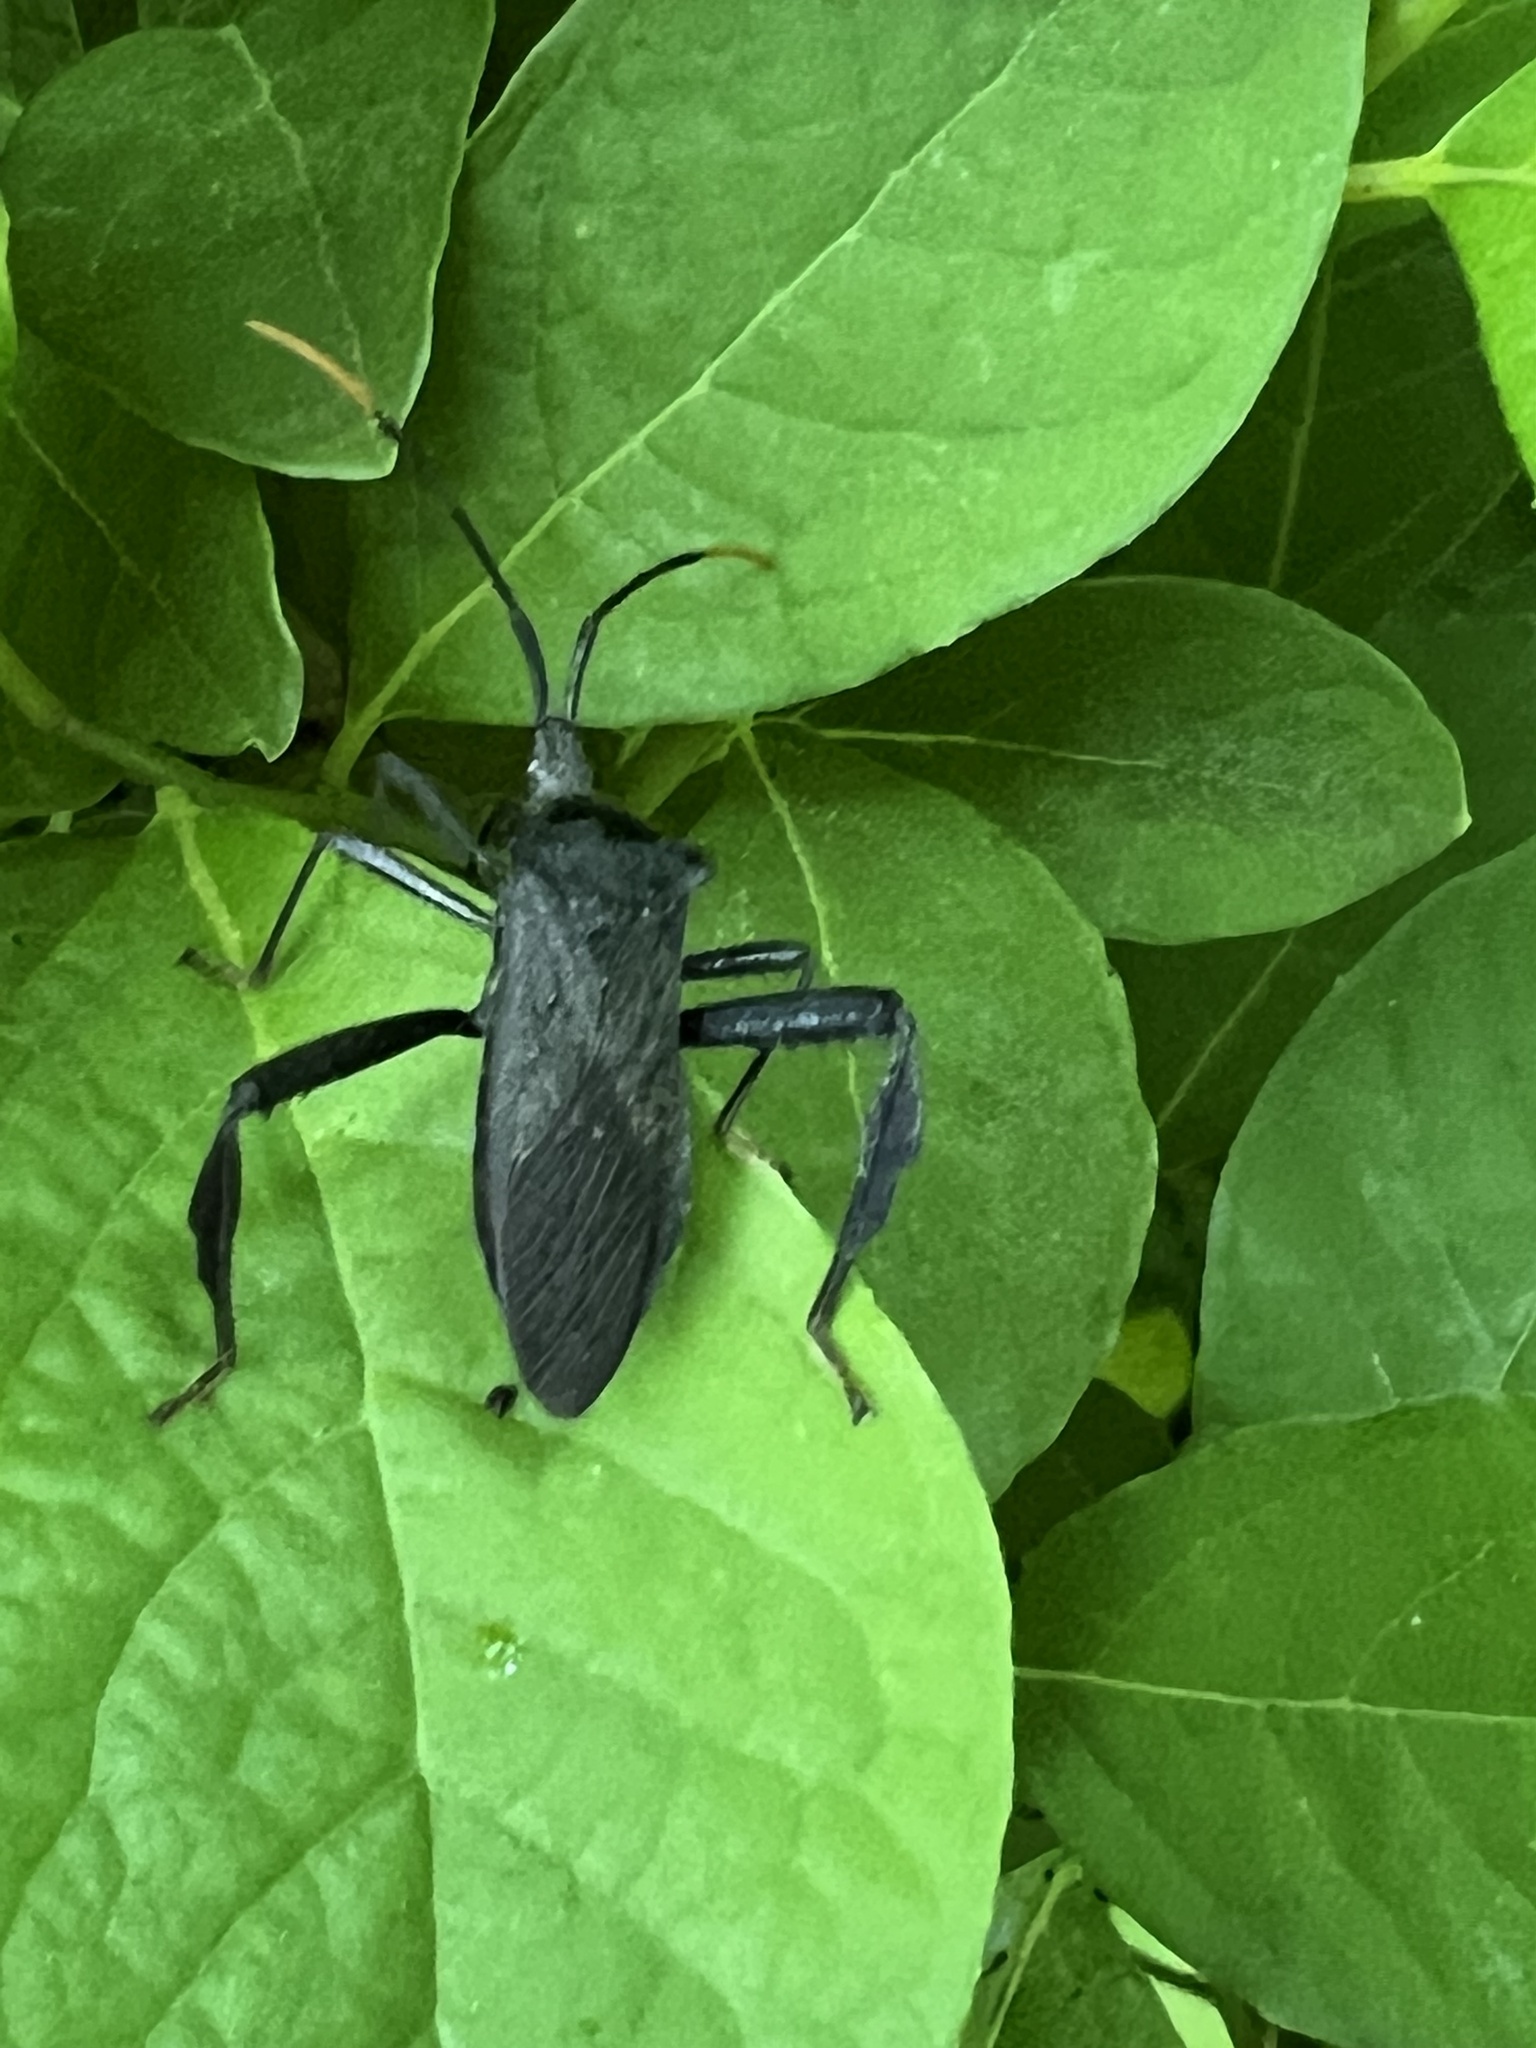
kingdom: Animalia
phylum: Arthropoda
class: Insecta
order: Hemiptera
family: Coreidae
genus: Acanthocephala
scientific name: Acanthocephala terminalis
